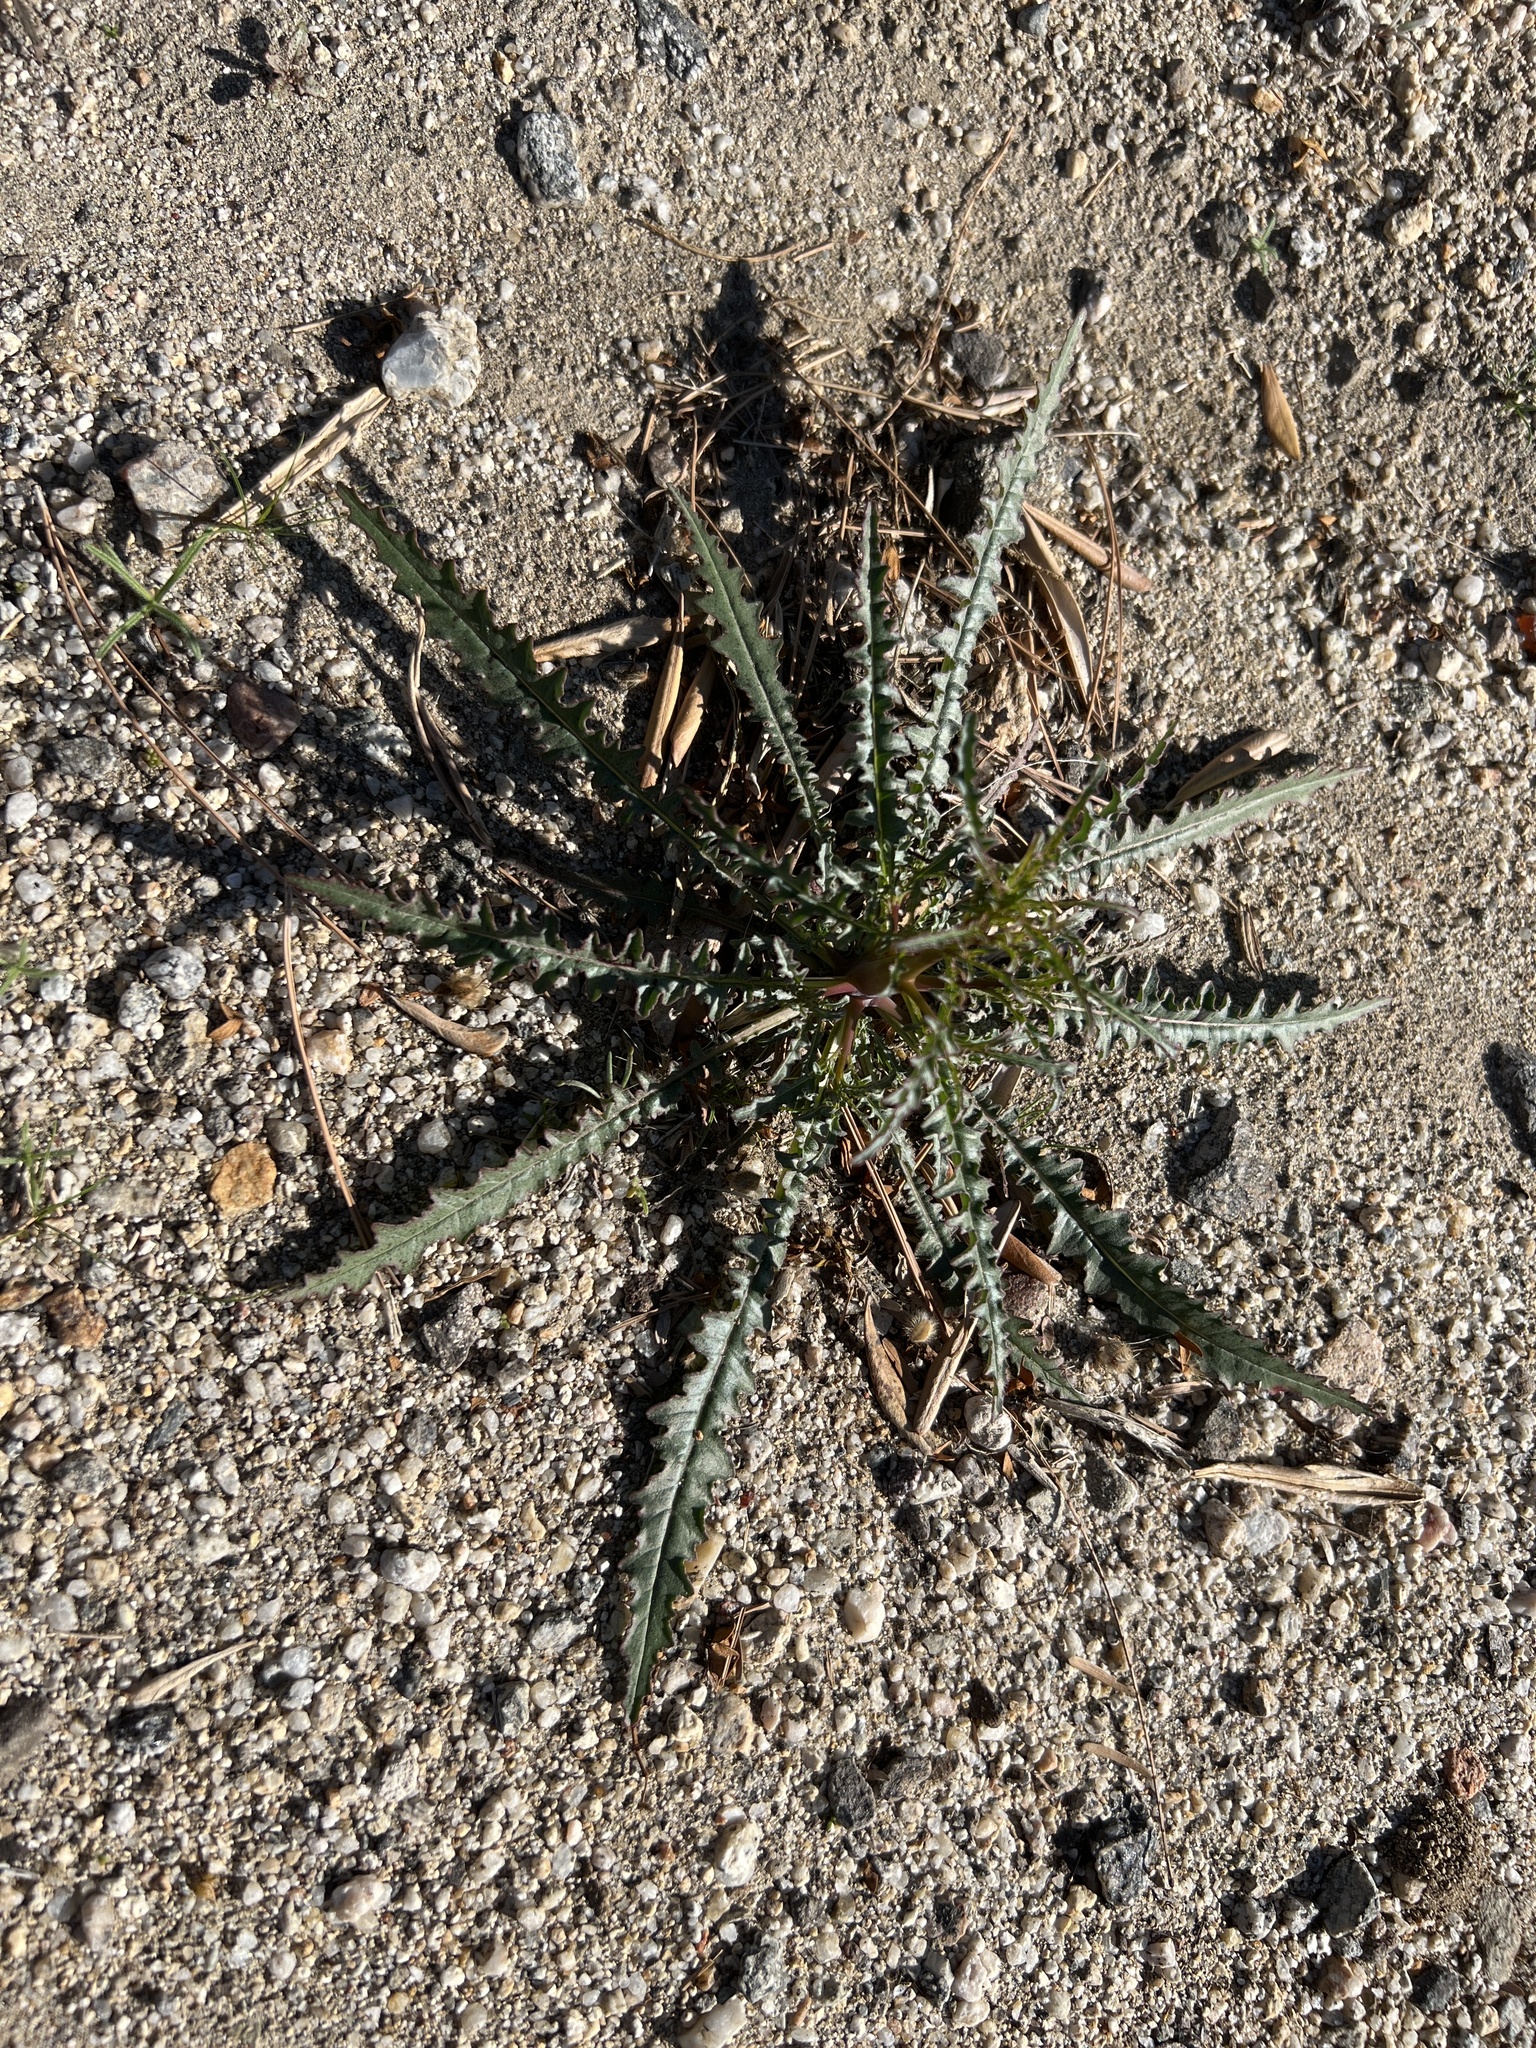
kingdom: Plantae
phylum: Tracheophyta
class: Magnoliopsida
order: Myrtales
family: Onagraceae
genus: Eulobus
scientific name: Eulobus californicus
